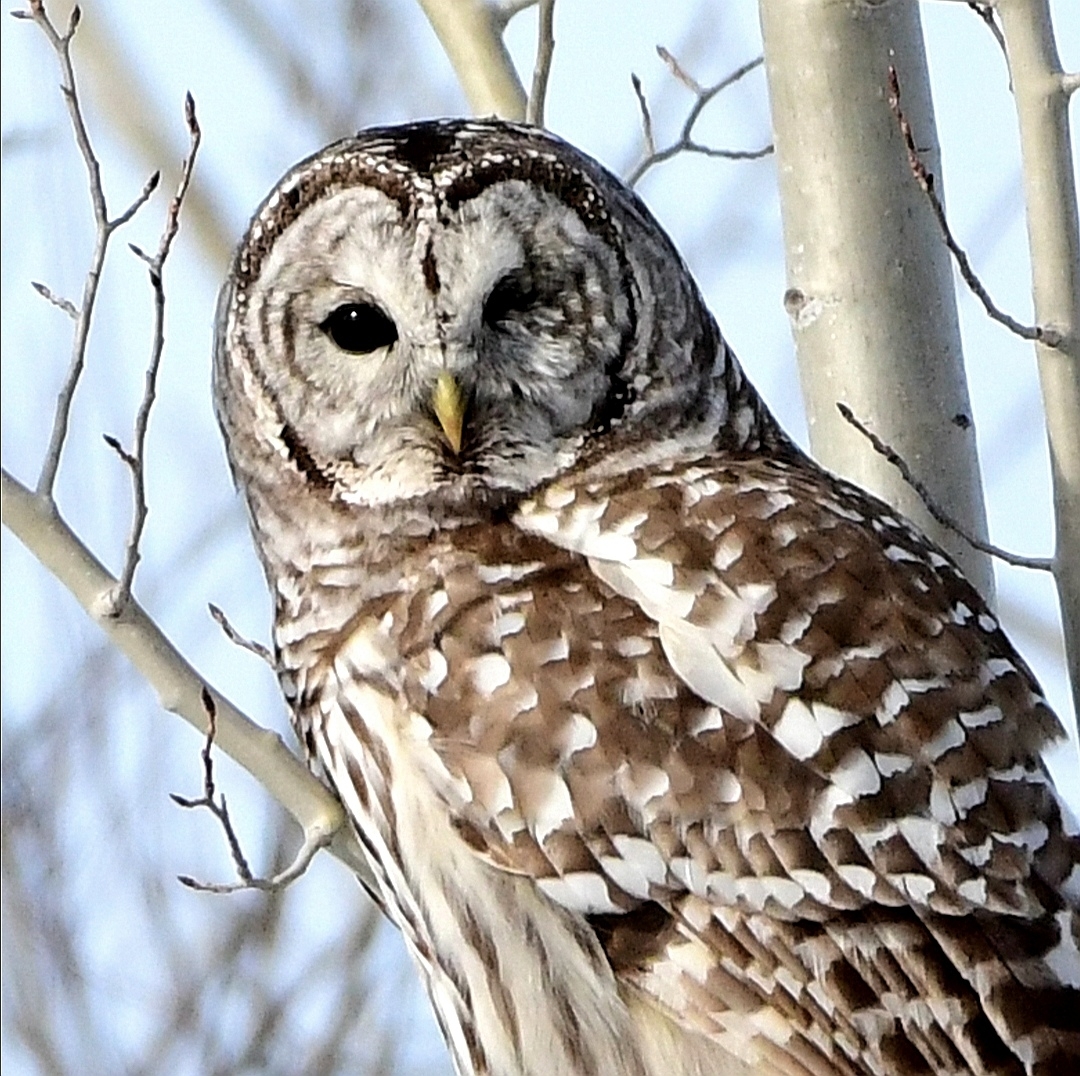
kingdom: Animalia
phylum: Chordata
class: Aves
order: Strigiformes
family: Strigidae
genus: Strix
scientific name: Strix varia
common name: Barred owl
